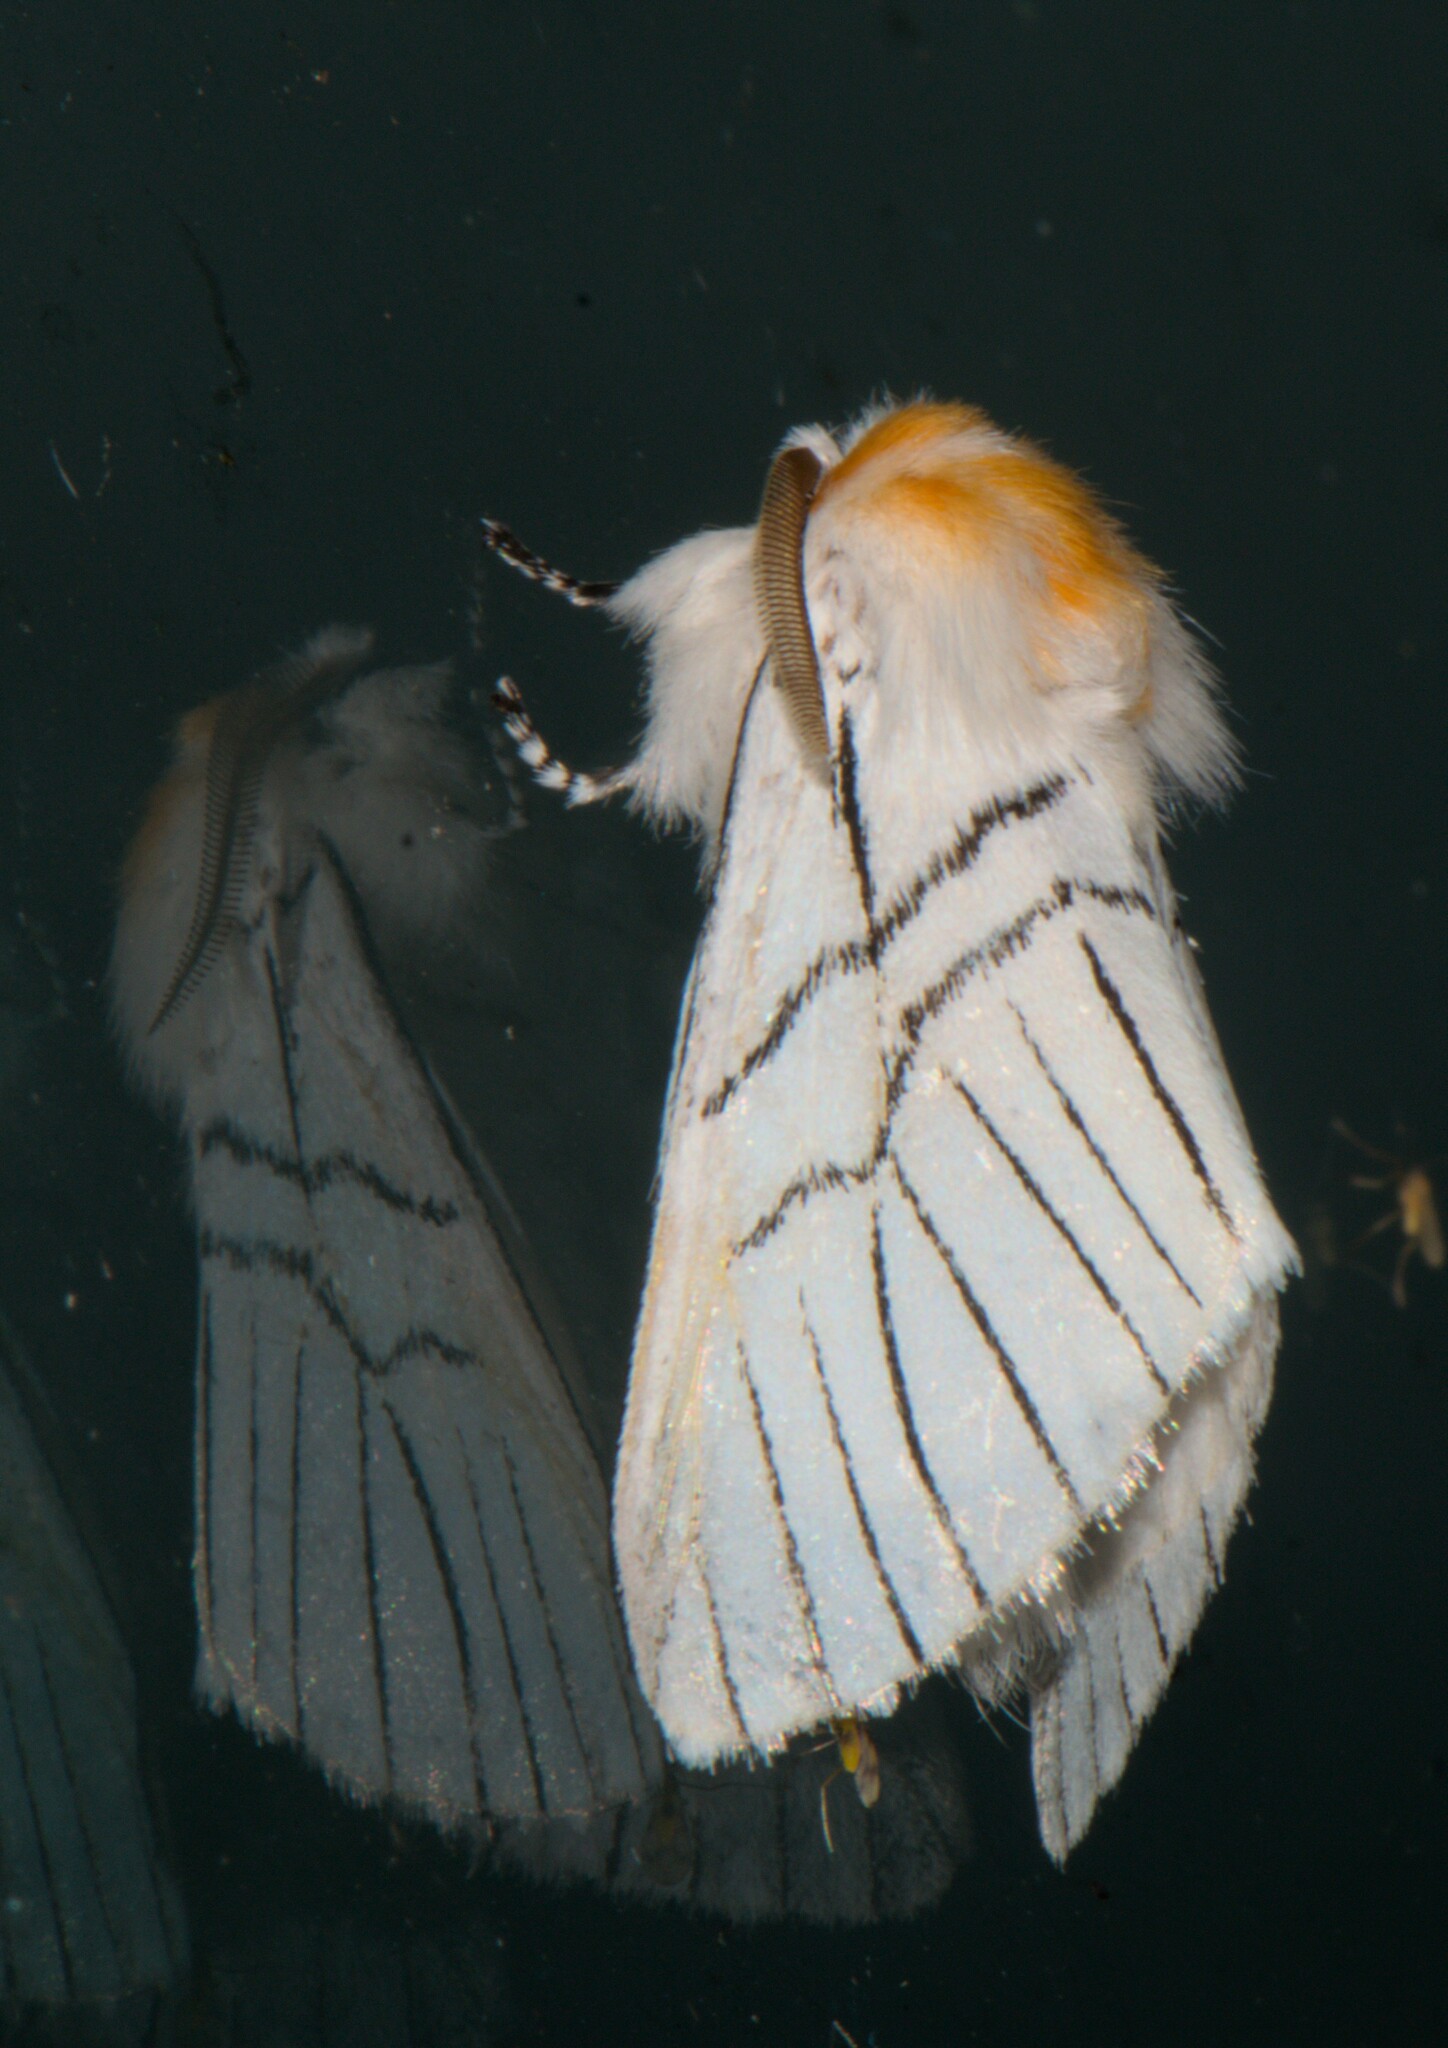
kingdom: Animalia
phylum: Arthropoda
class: Insecta
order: Lepidoptera
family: Notodontidae
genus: Oligoclona
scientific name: Oligoclona chrysolopha
